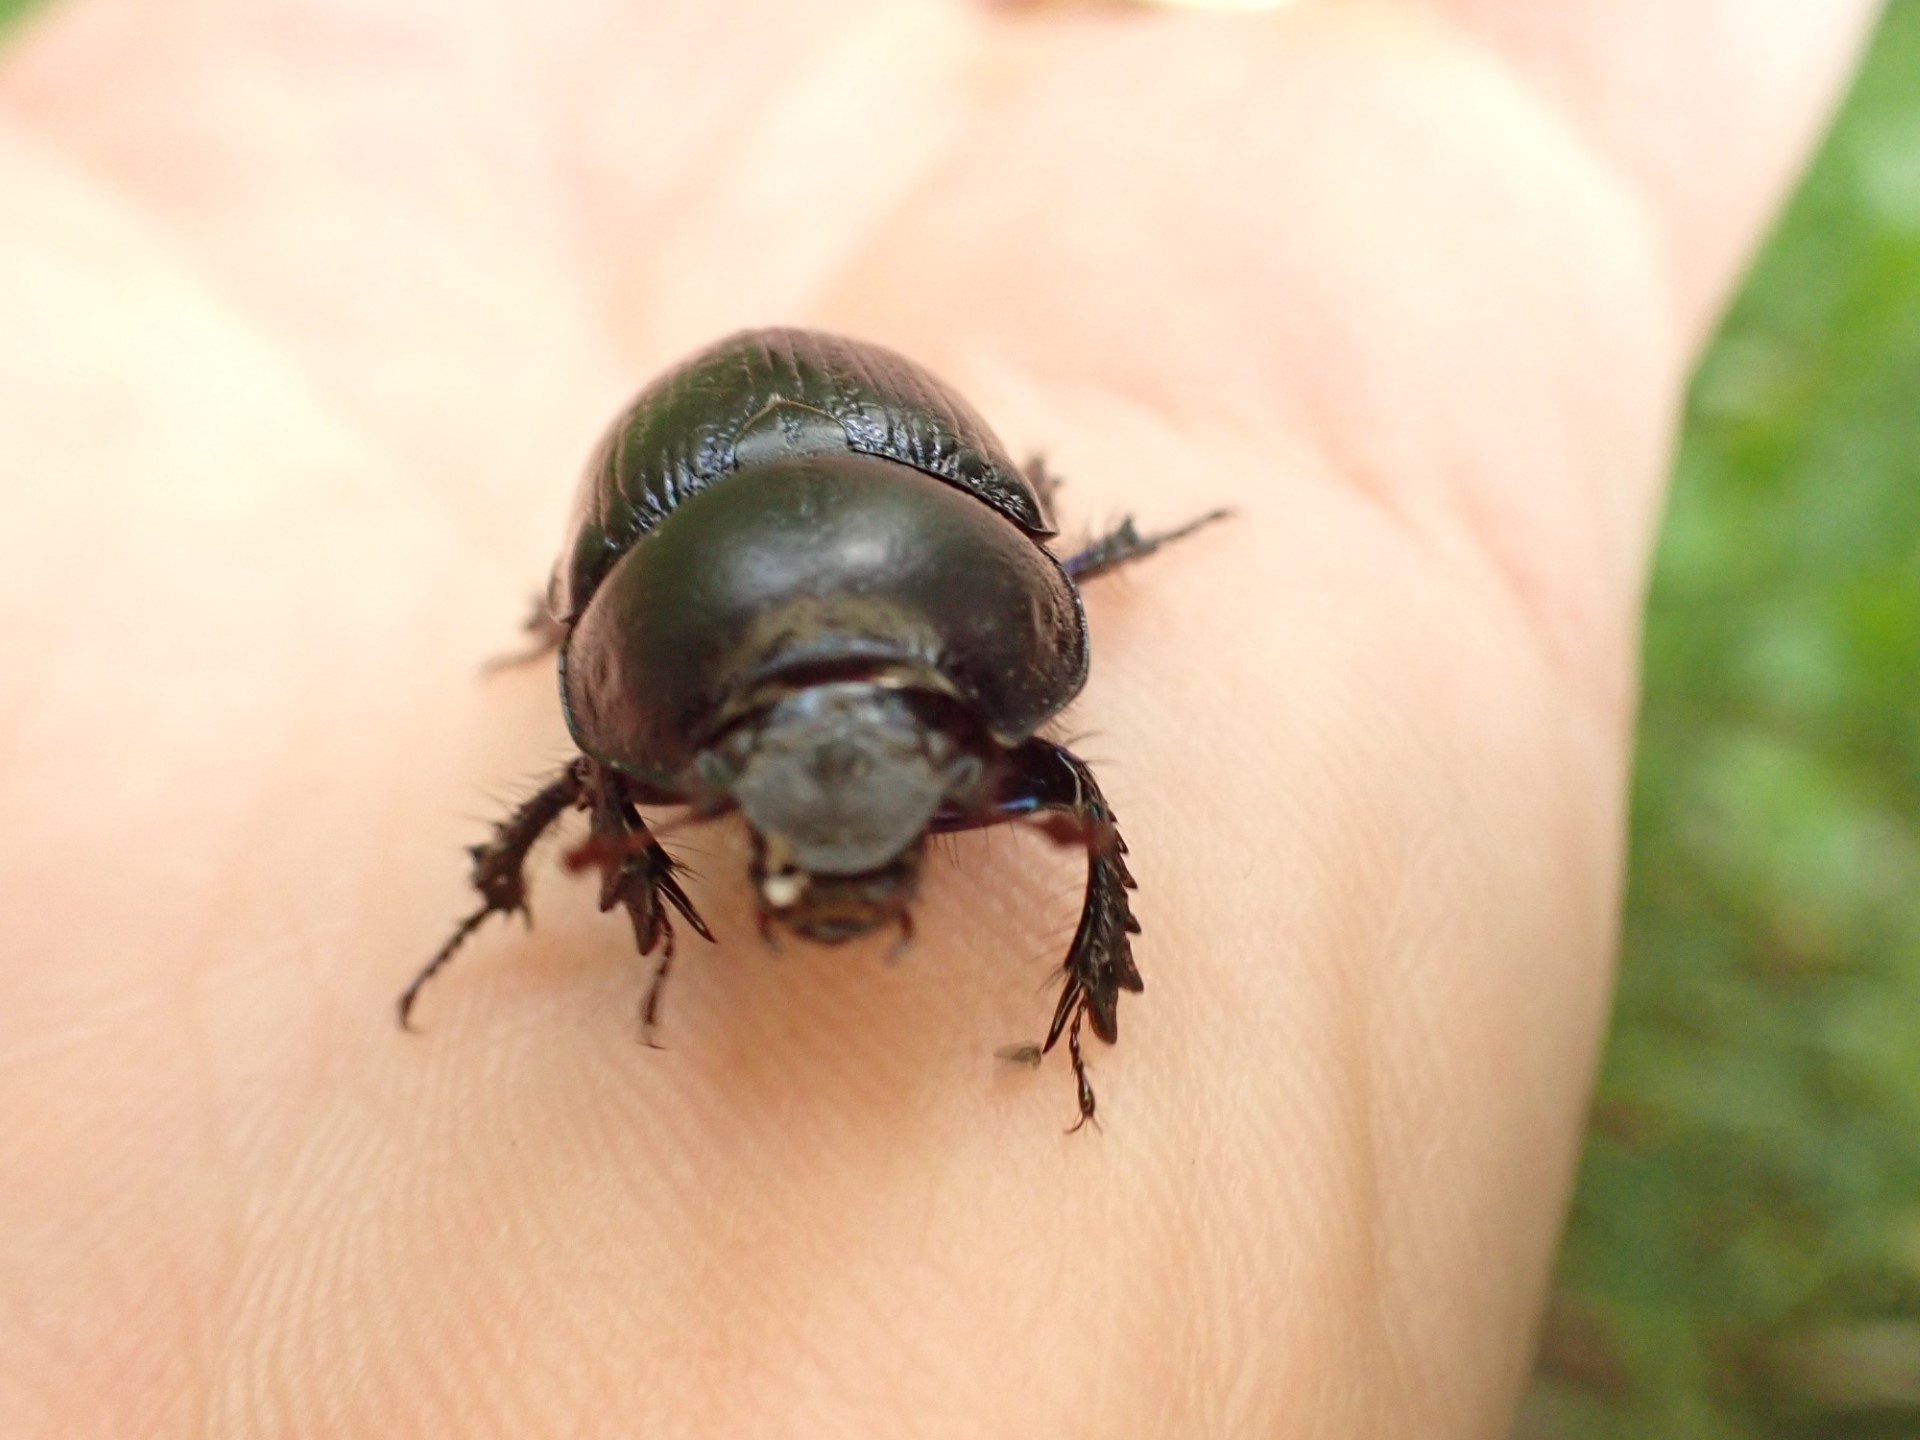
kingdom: Animalia
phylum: Arthropoda
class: Insecta
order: Coleoptera
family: Geotrupidae
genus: Anoplotrupes
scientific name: Anoplotrupes stercorosus
